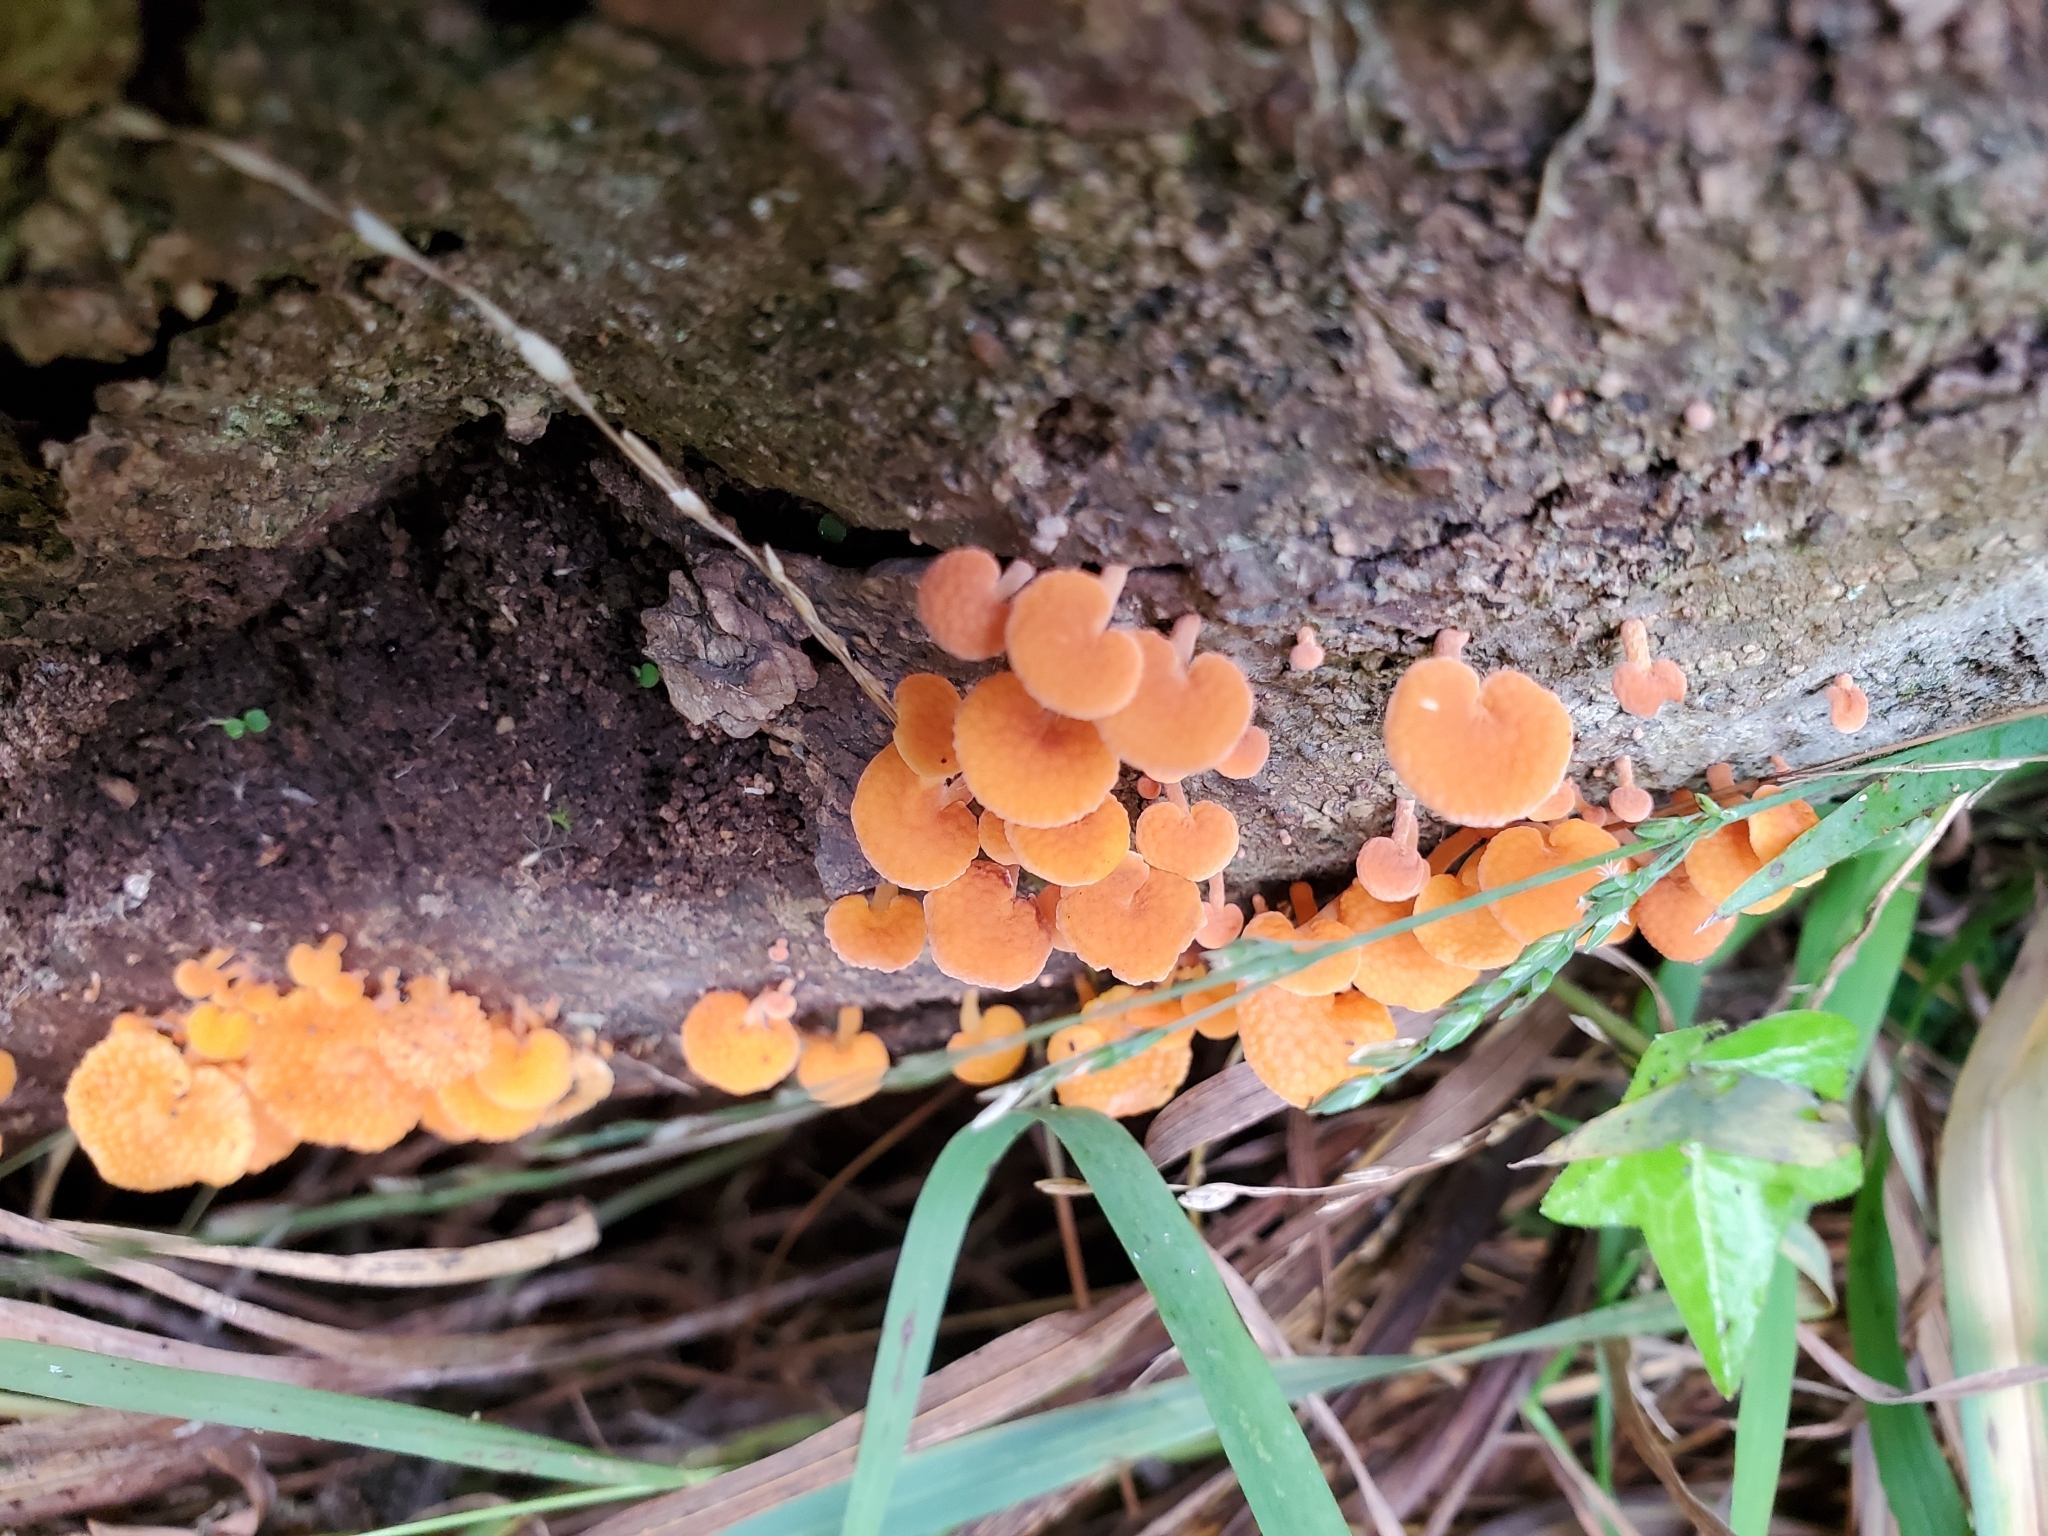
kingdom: Fungi
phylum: Basidiomycota
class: Agaricomycetes
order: Agaricales
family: Mycenaceae
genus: Favolaschia
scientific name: Favolaschia claudopus
